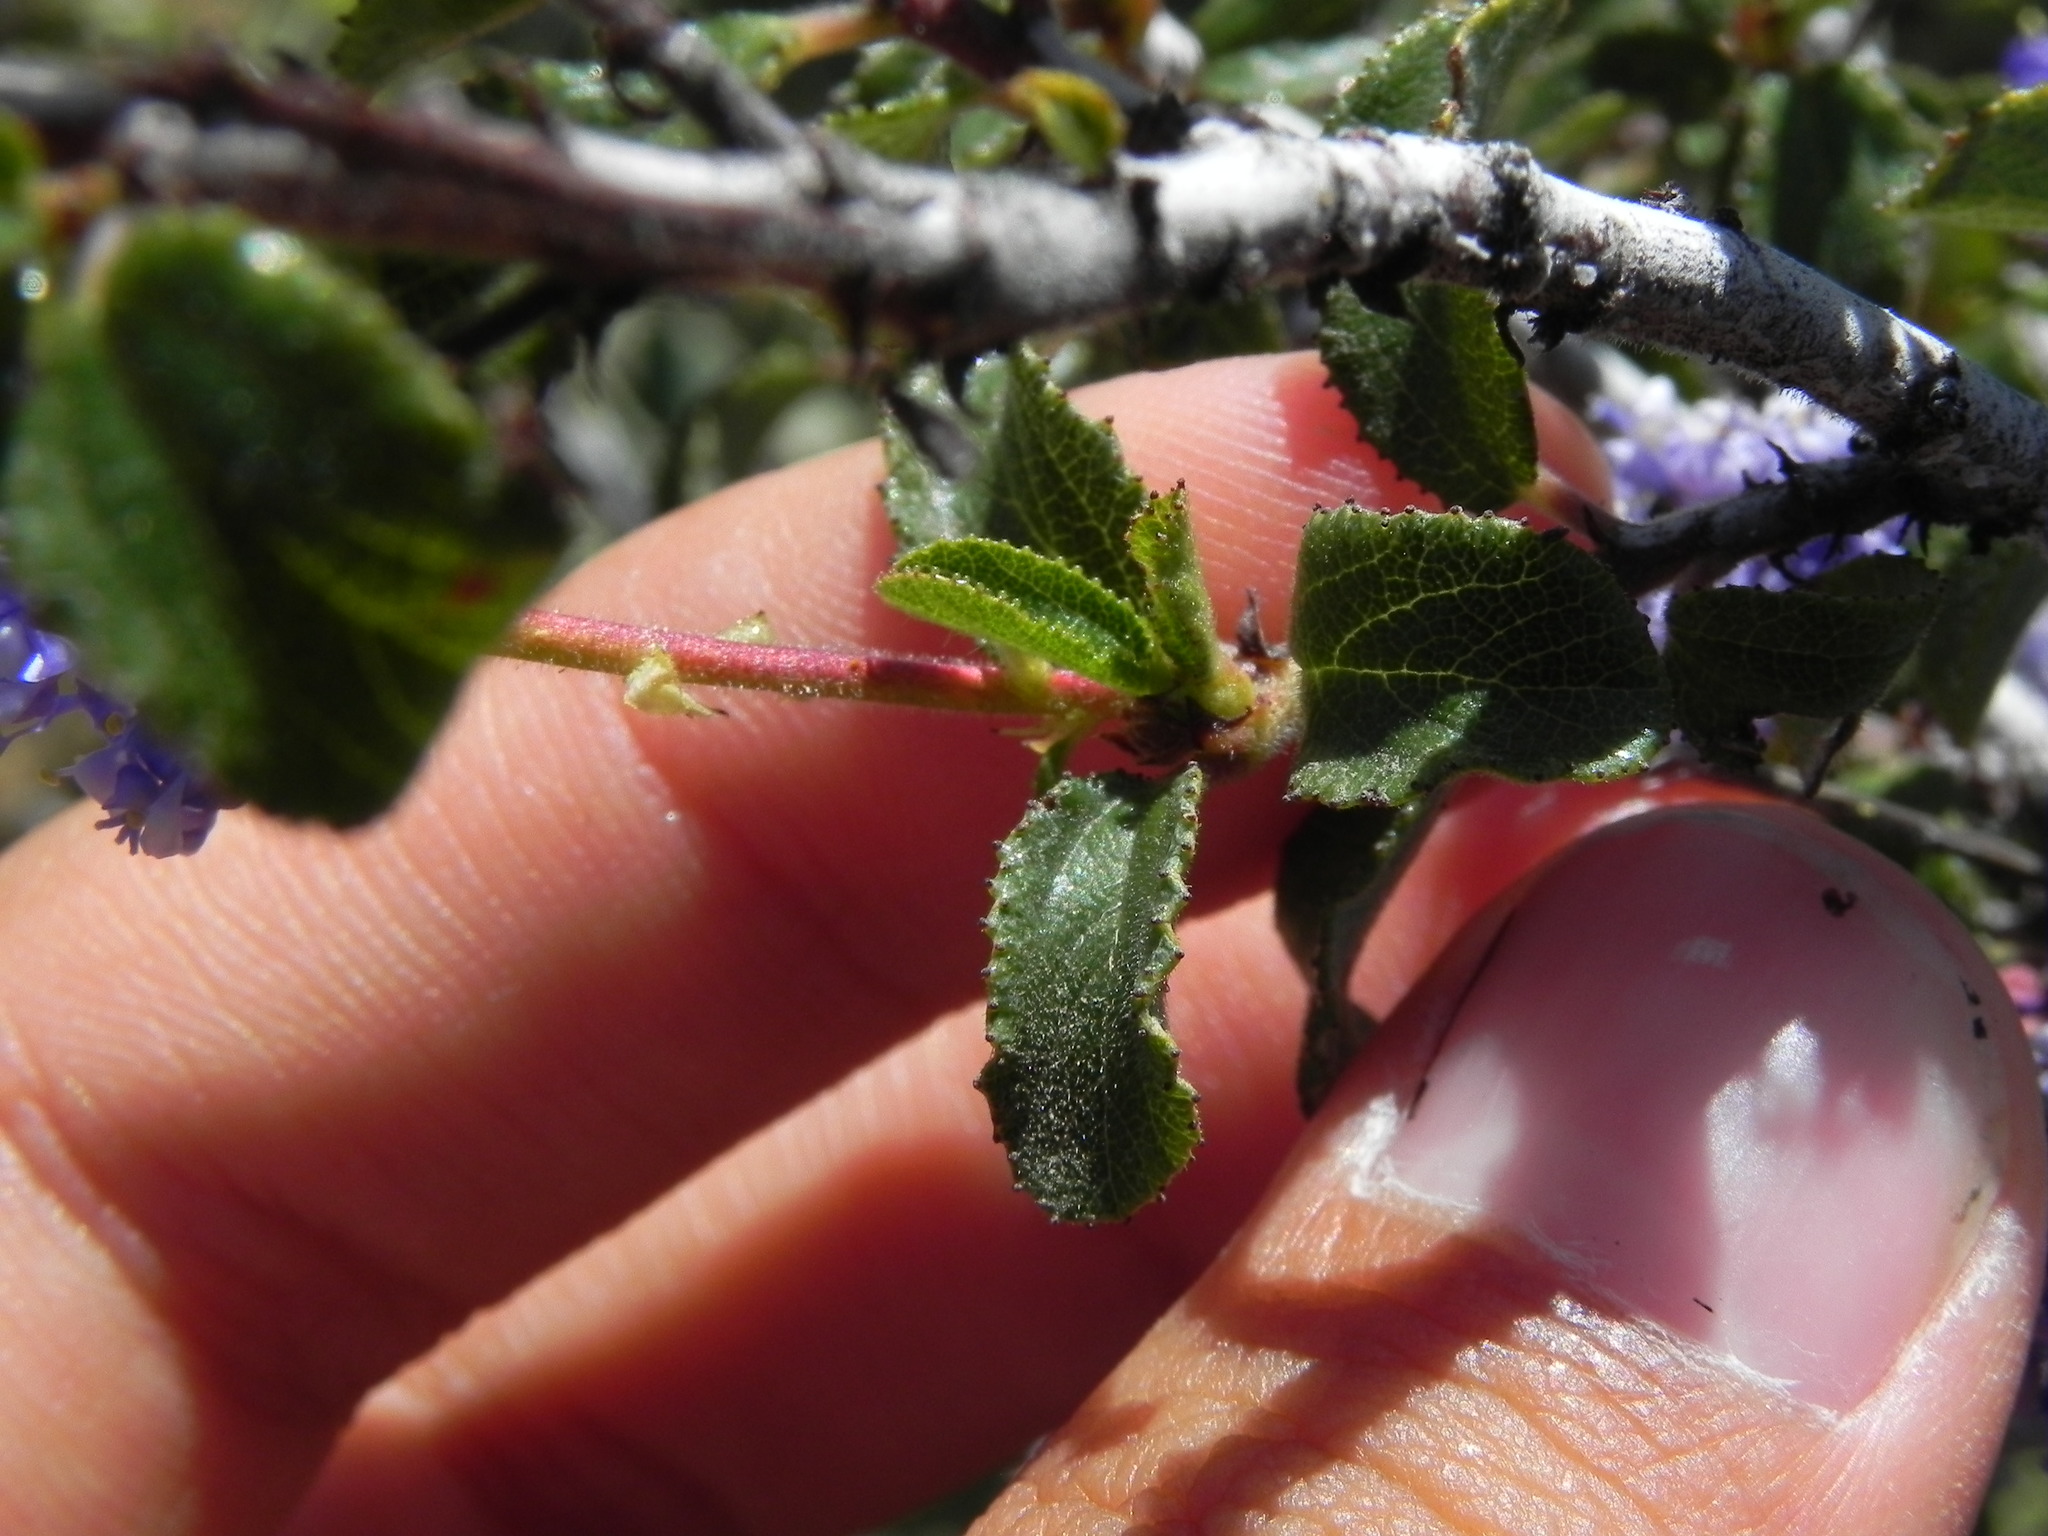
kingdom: Plantae
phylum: Tracheophyta
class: Magnoliopsida
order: Rosales
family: Rhamnaceae
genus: Ceanothus
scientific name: Ceanothus foliosus
